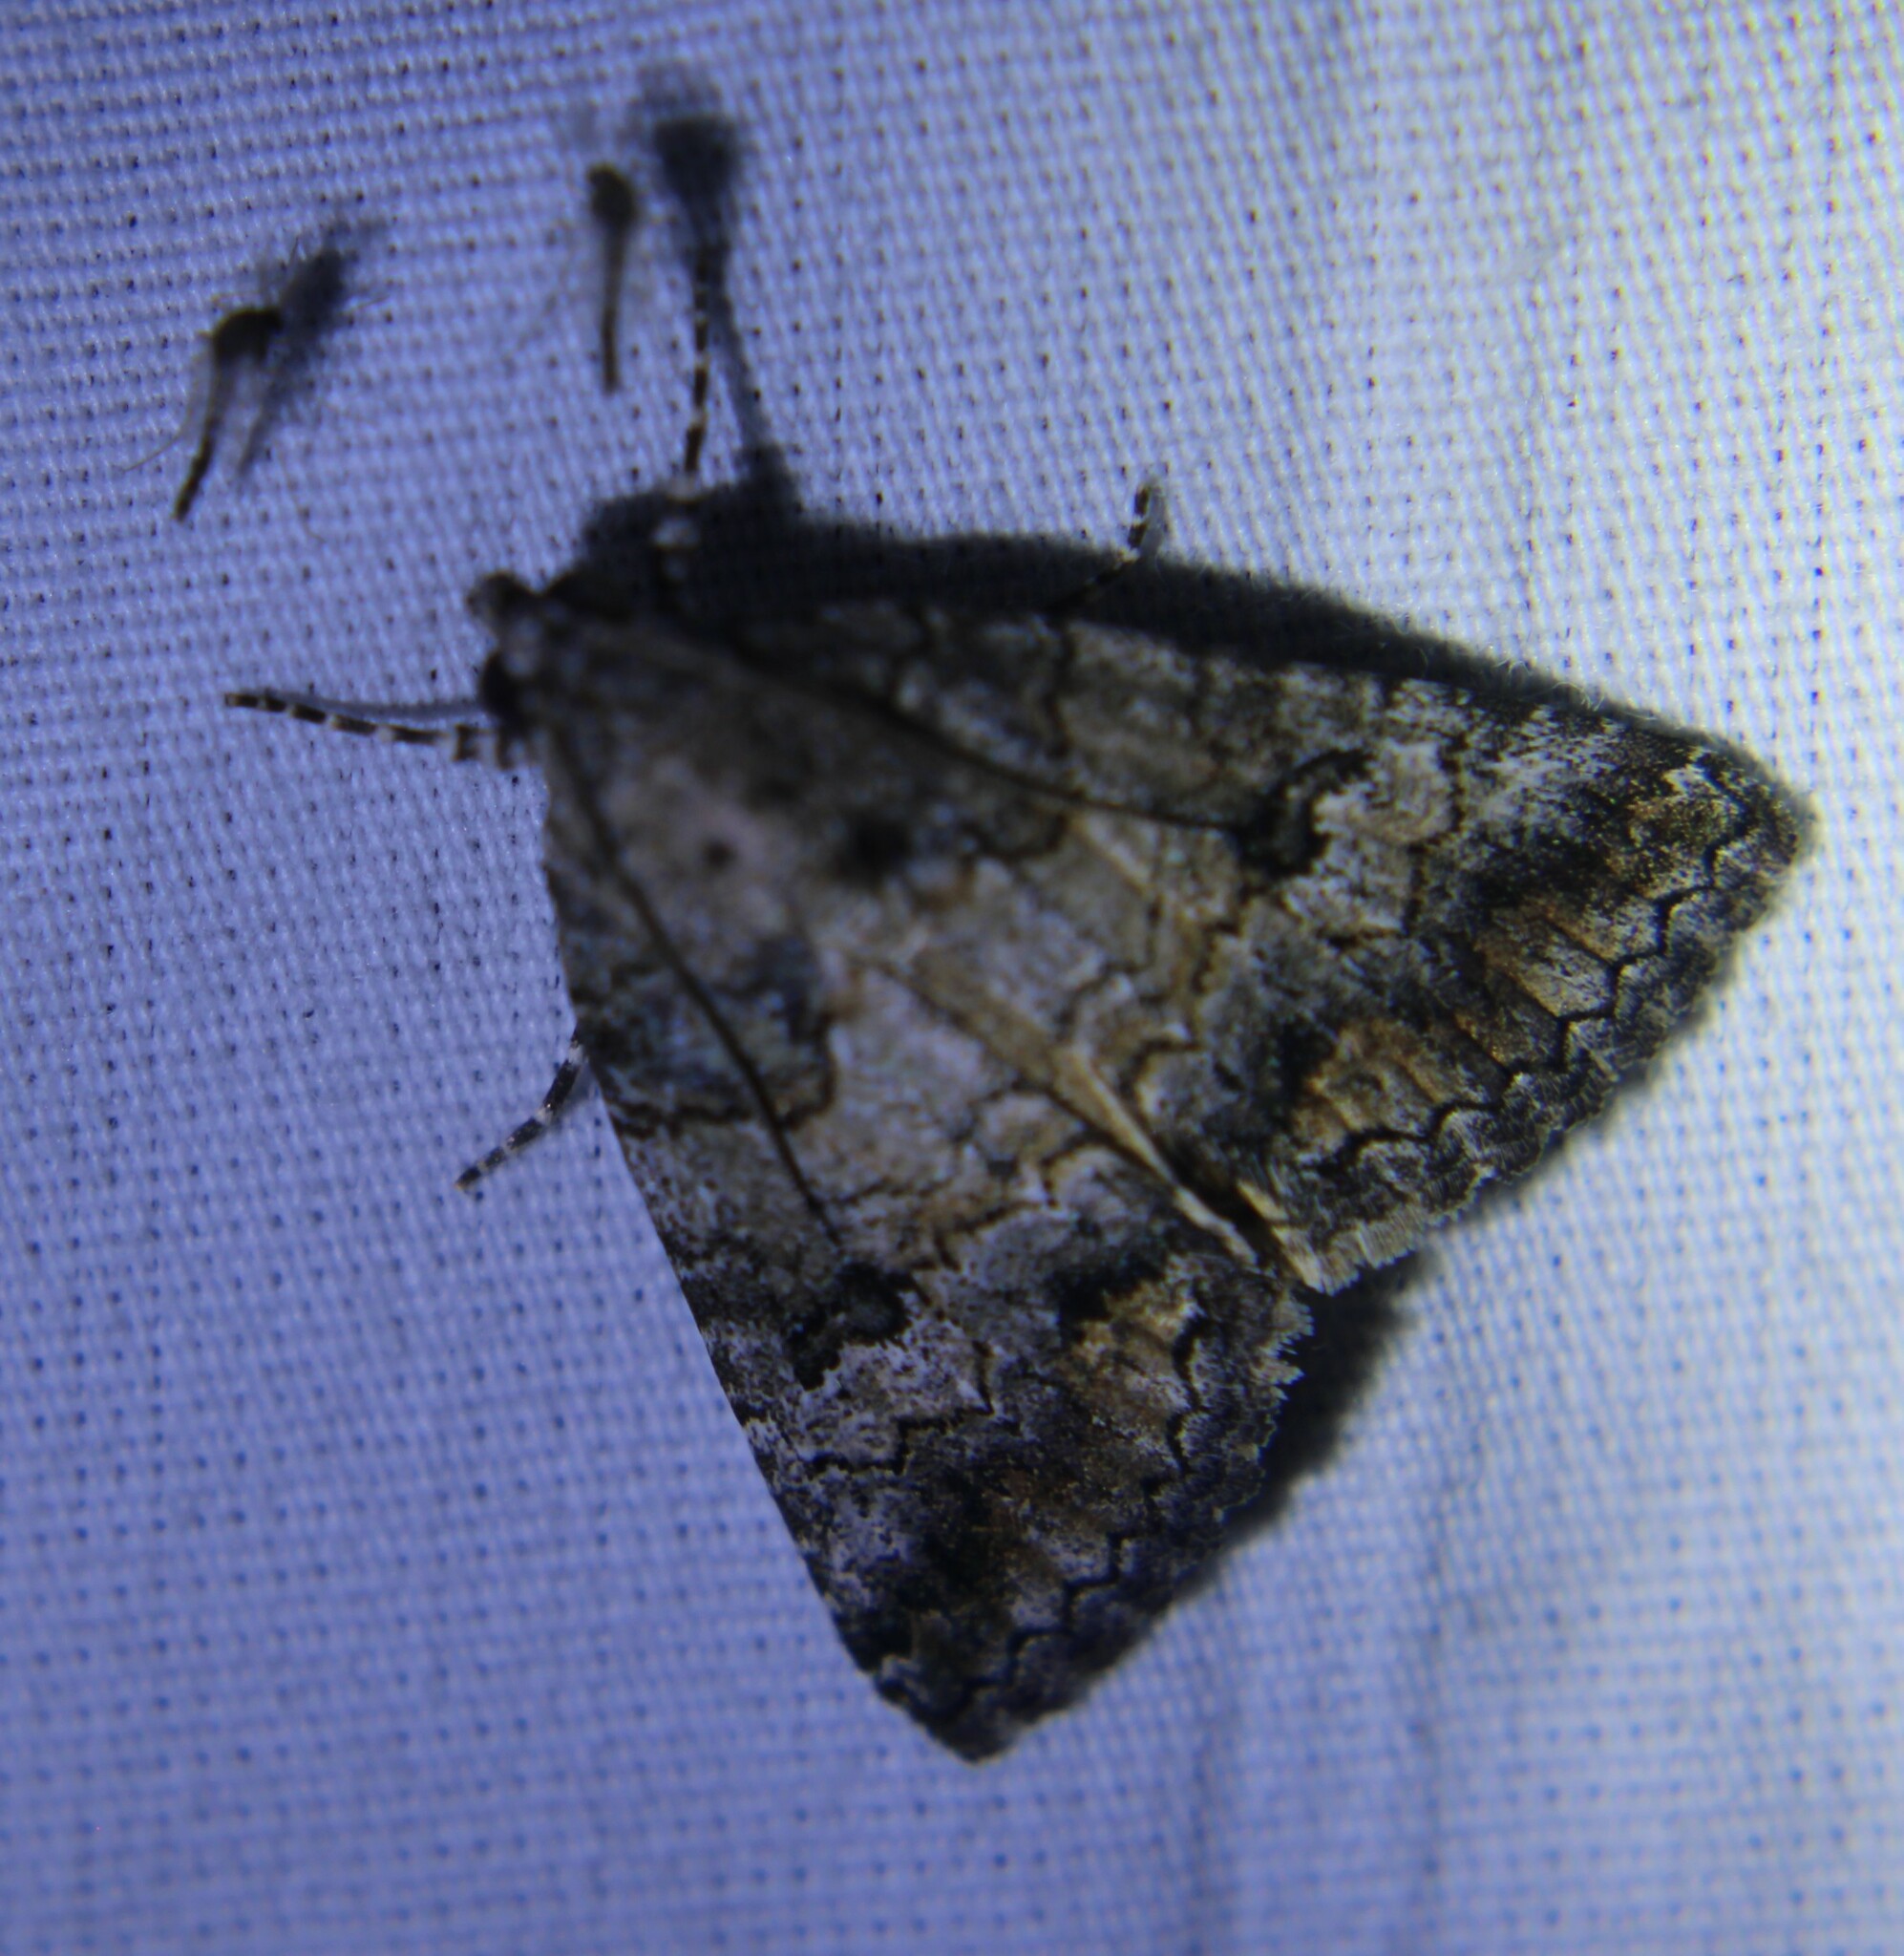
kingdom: Animalia
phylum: Arthropoda
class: Insecta
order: Lepidoptera
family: Erebidae
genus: Eubolina
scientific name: Eubolina impartialis
